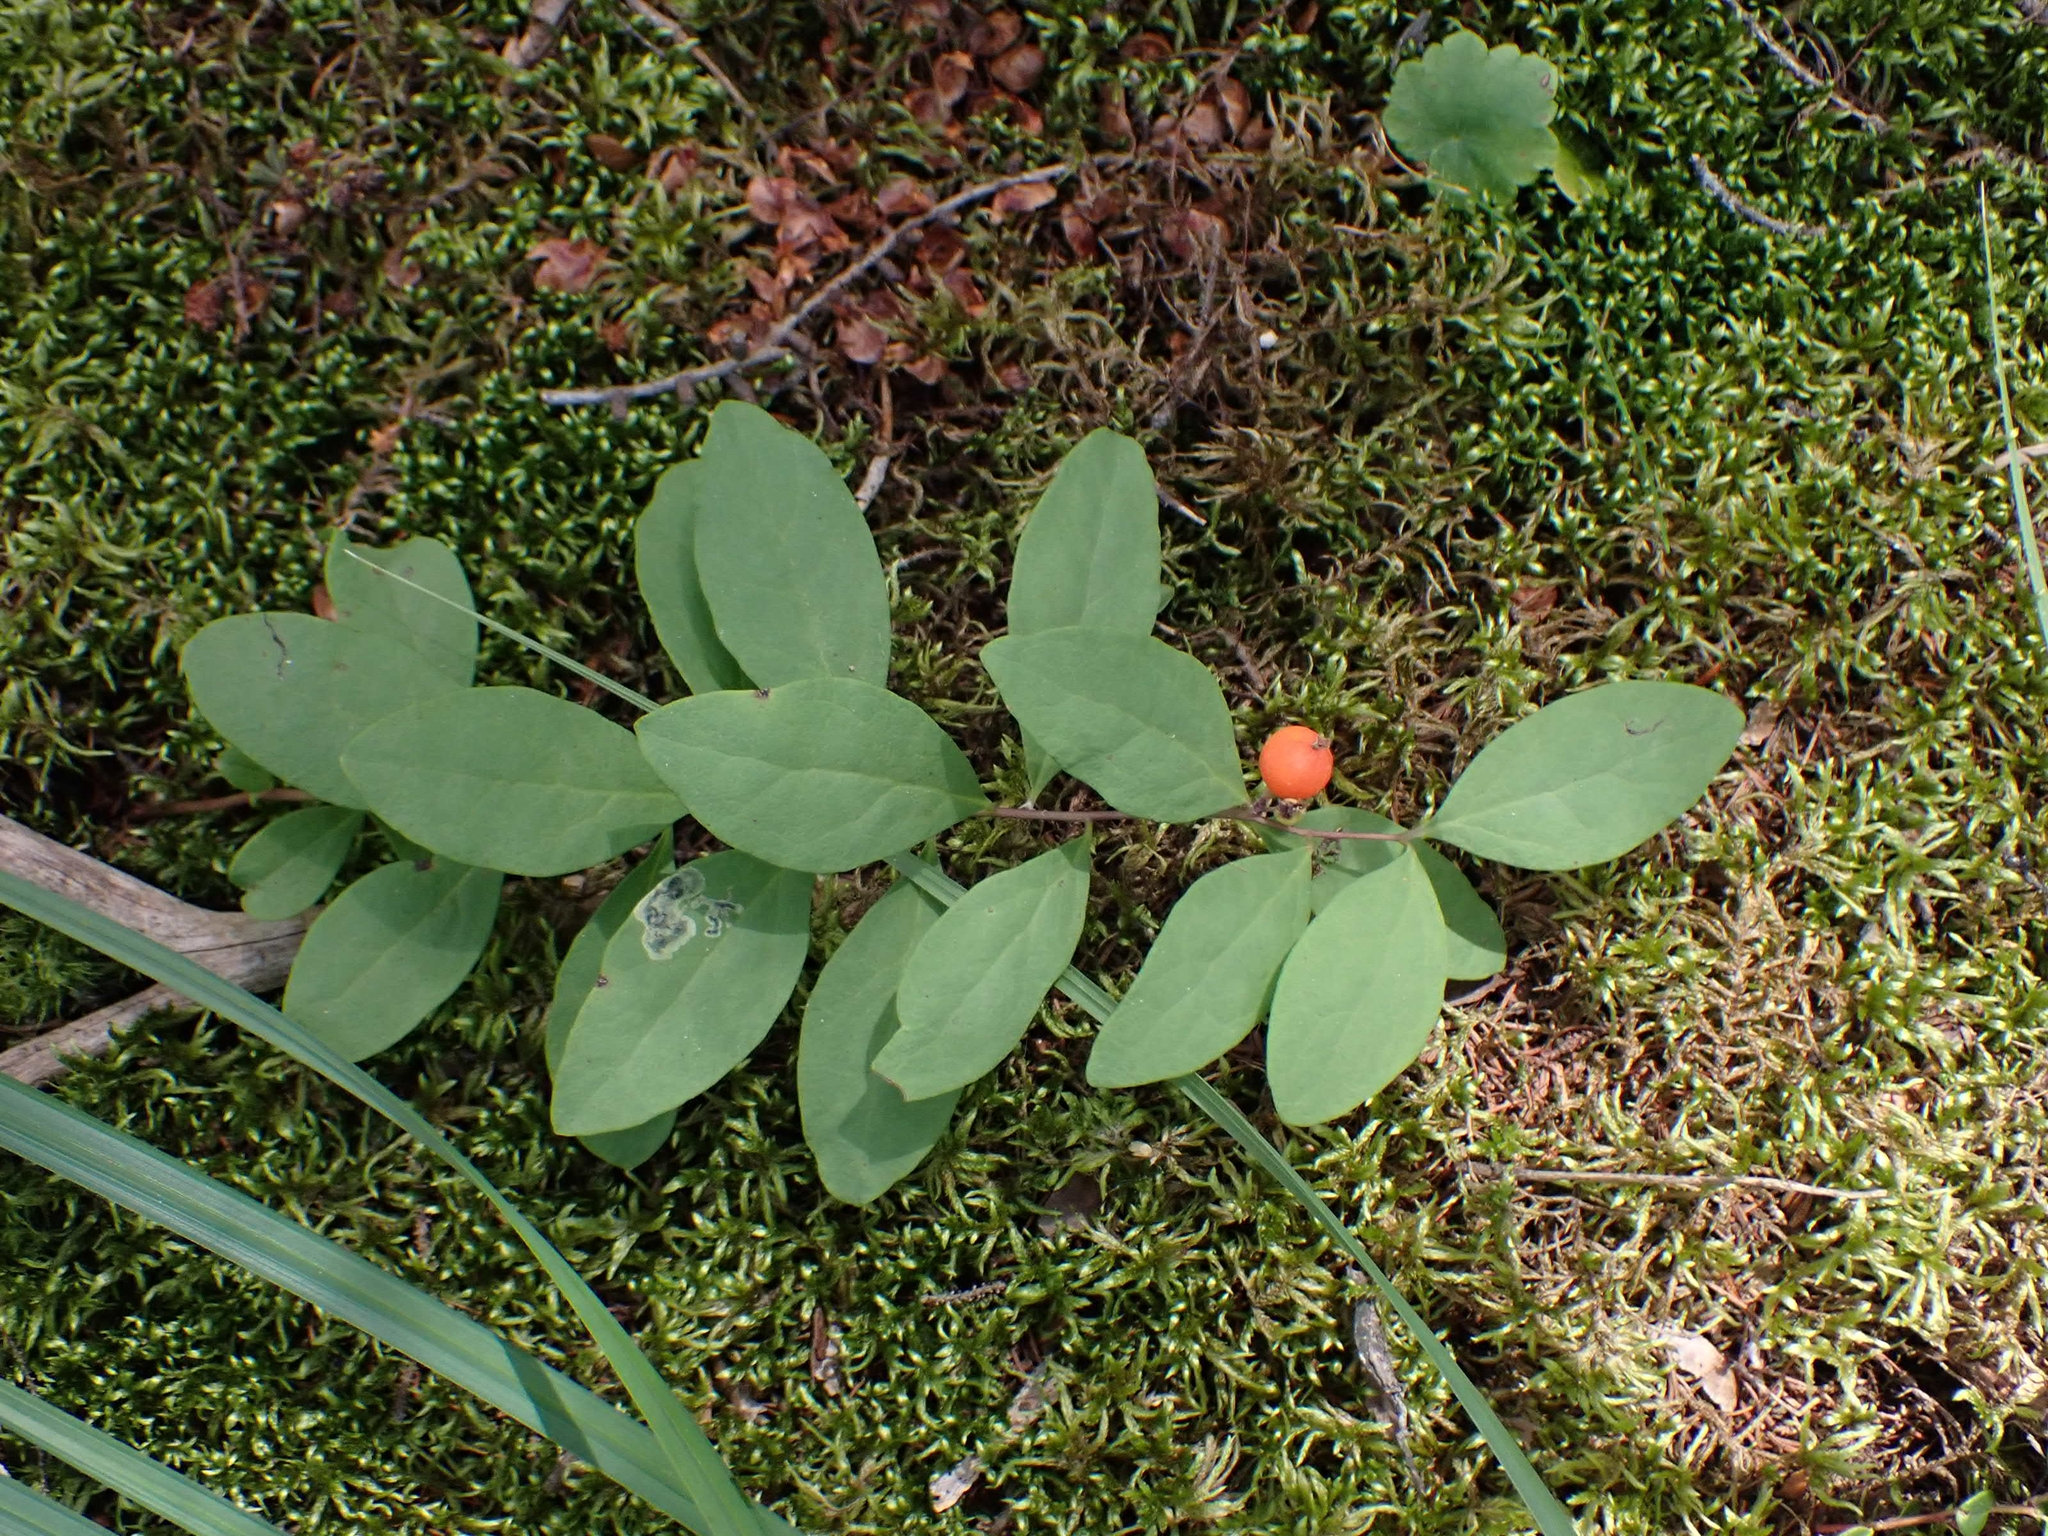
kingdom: Plantae
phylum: Tracheophyta
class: Magnoliopsida
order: Santalales
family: Comandraceae
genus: Geocaulon
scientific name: Geocaulon lividum
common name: Earthberry
